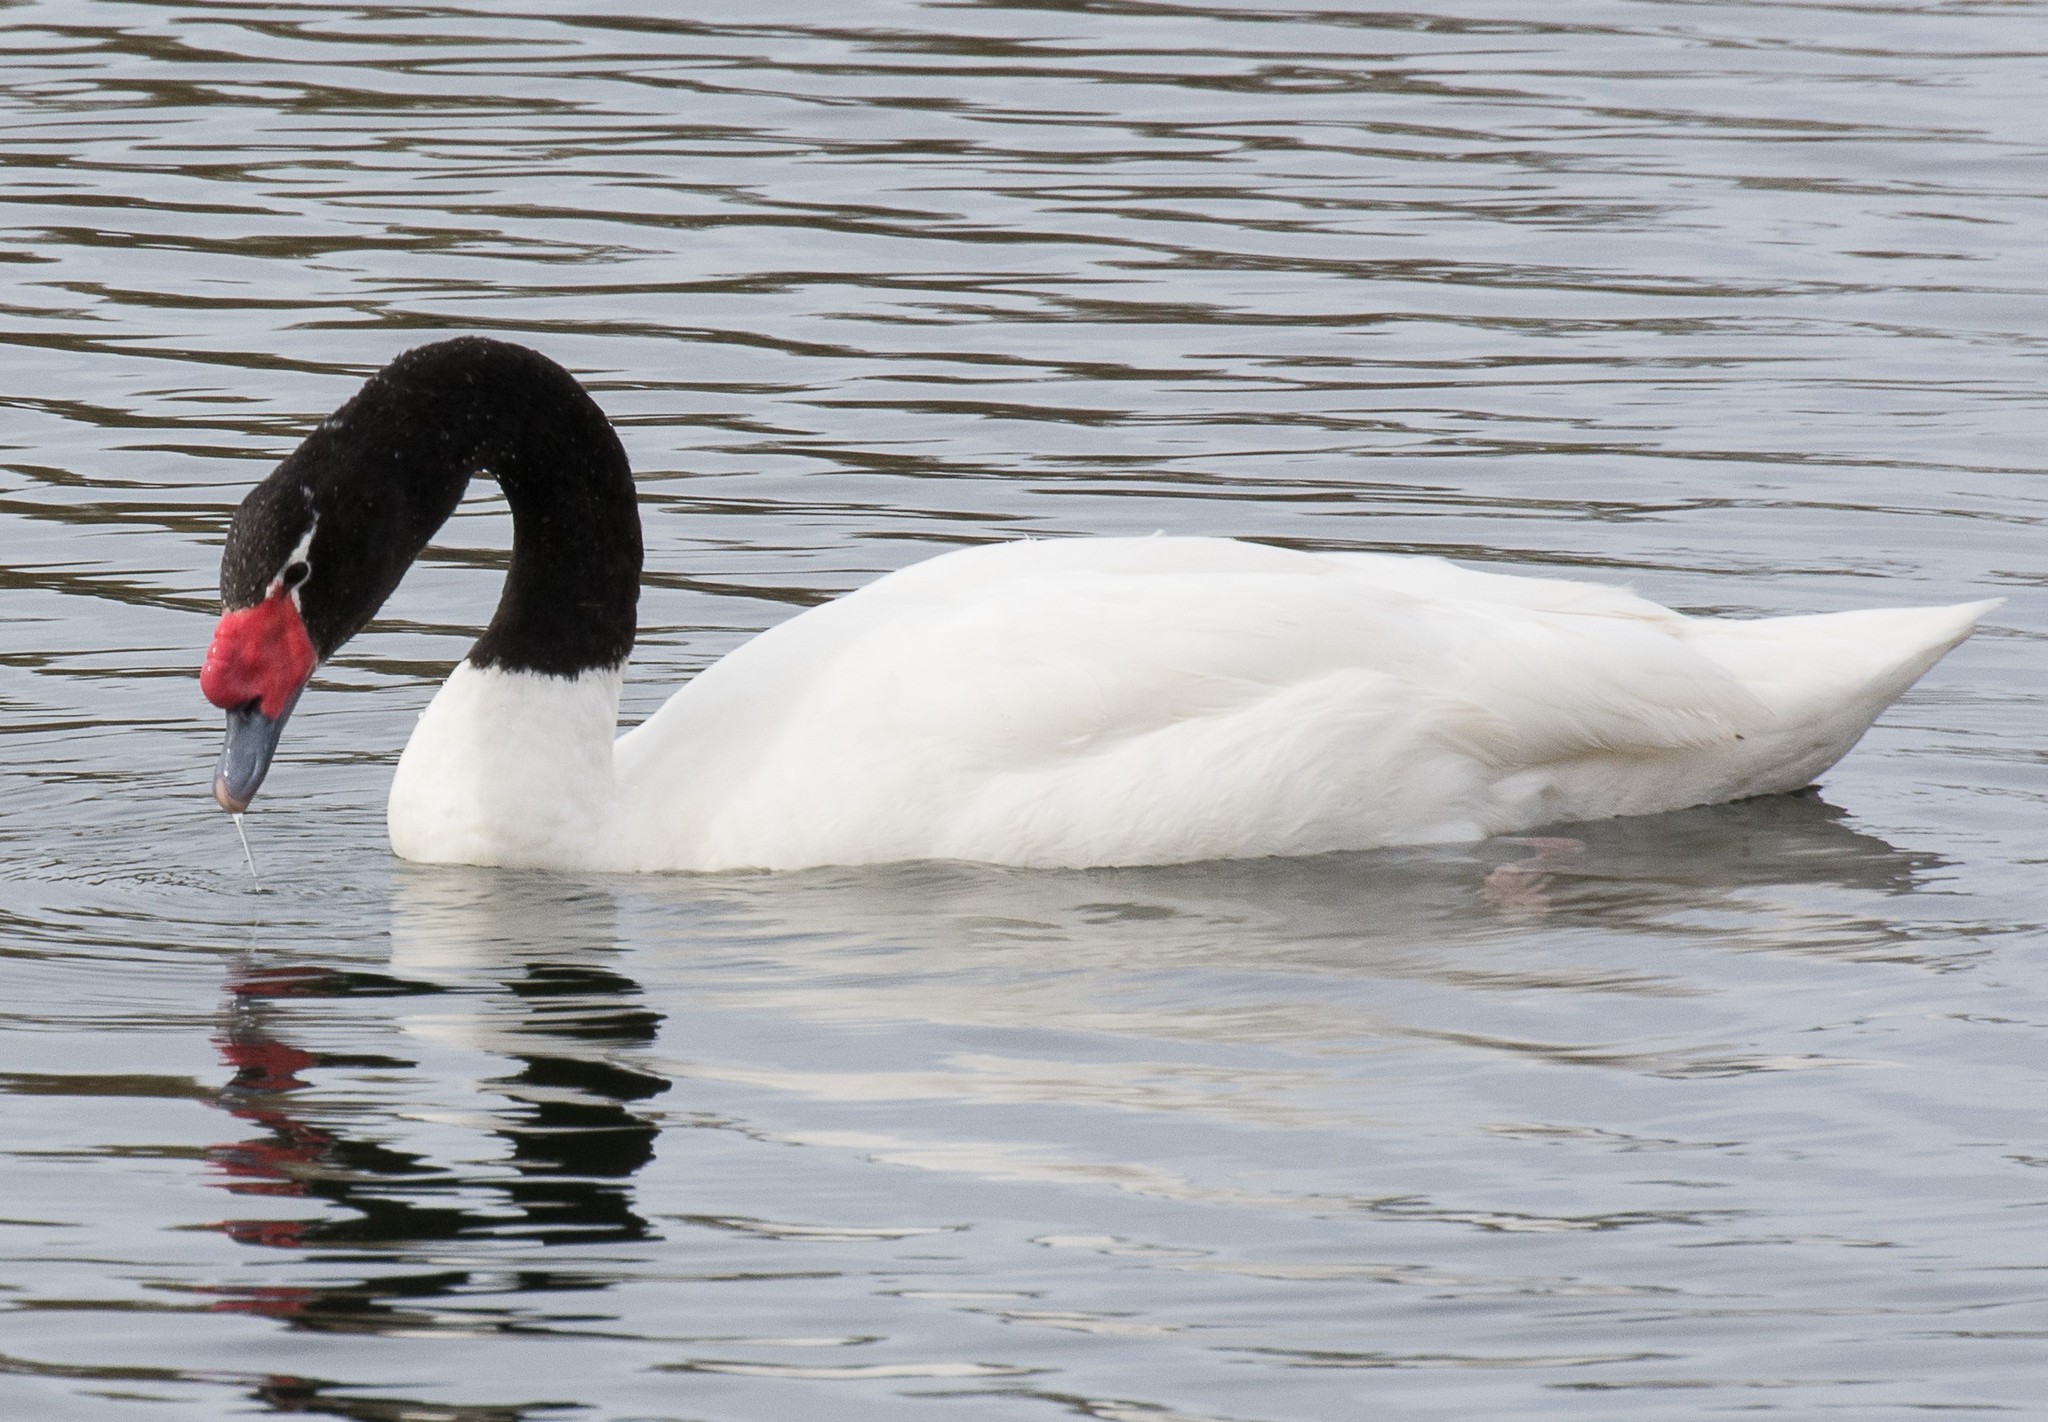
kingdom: Animalia
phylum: Chordata
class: Aves
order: Anseriformes
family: Anatidae
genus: Cygnus
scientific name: Cygnus melancoryphus
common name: Black-necked swan
